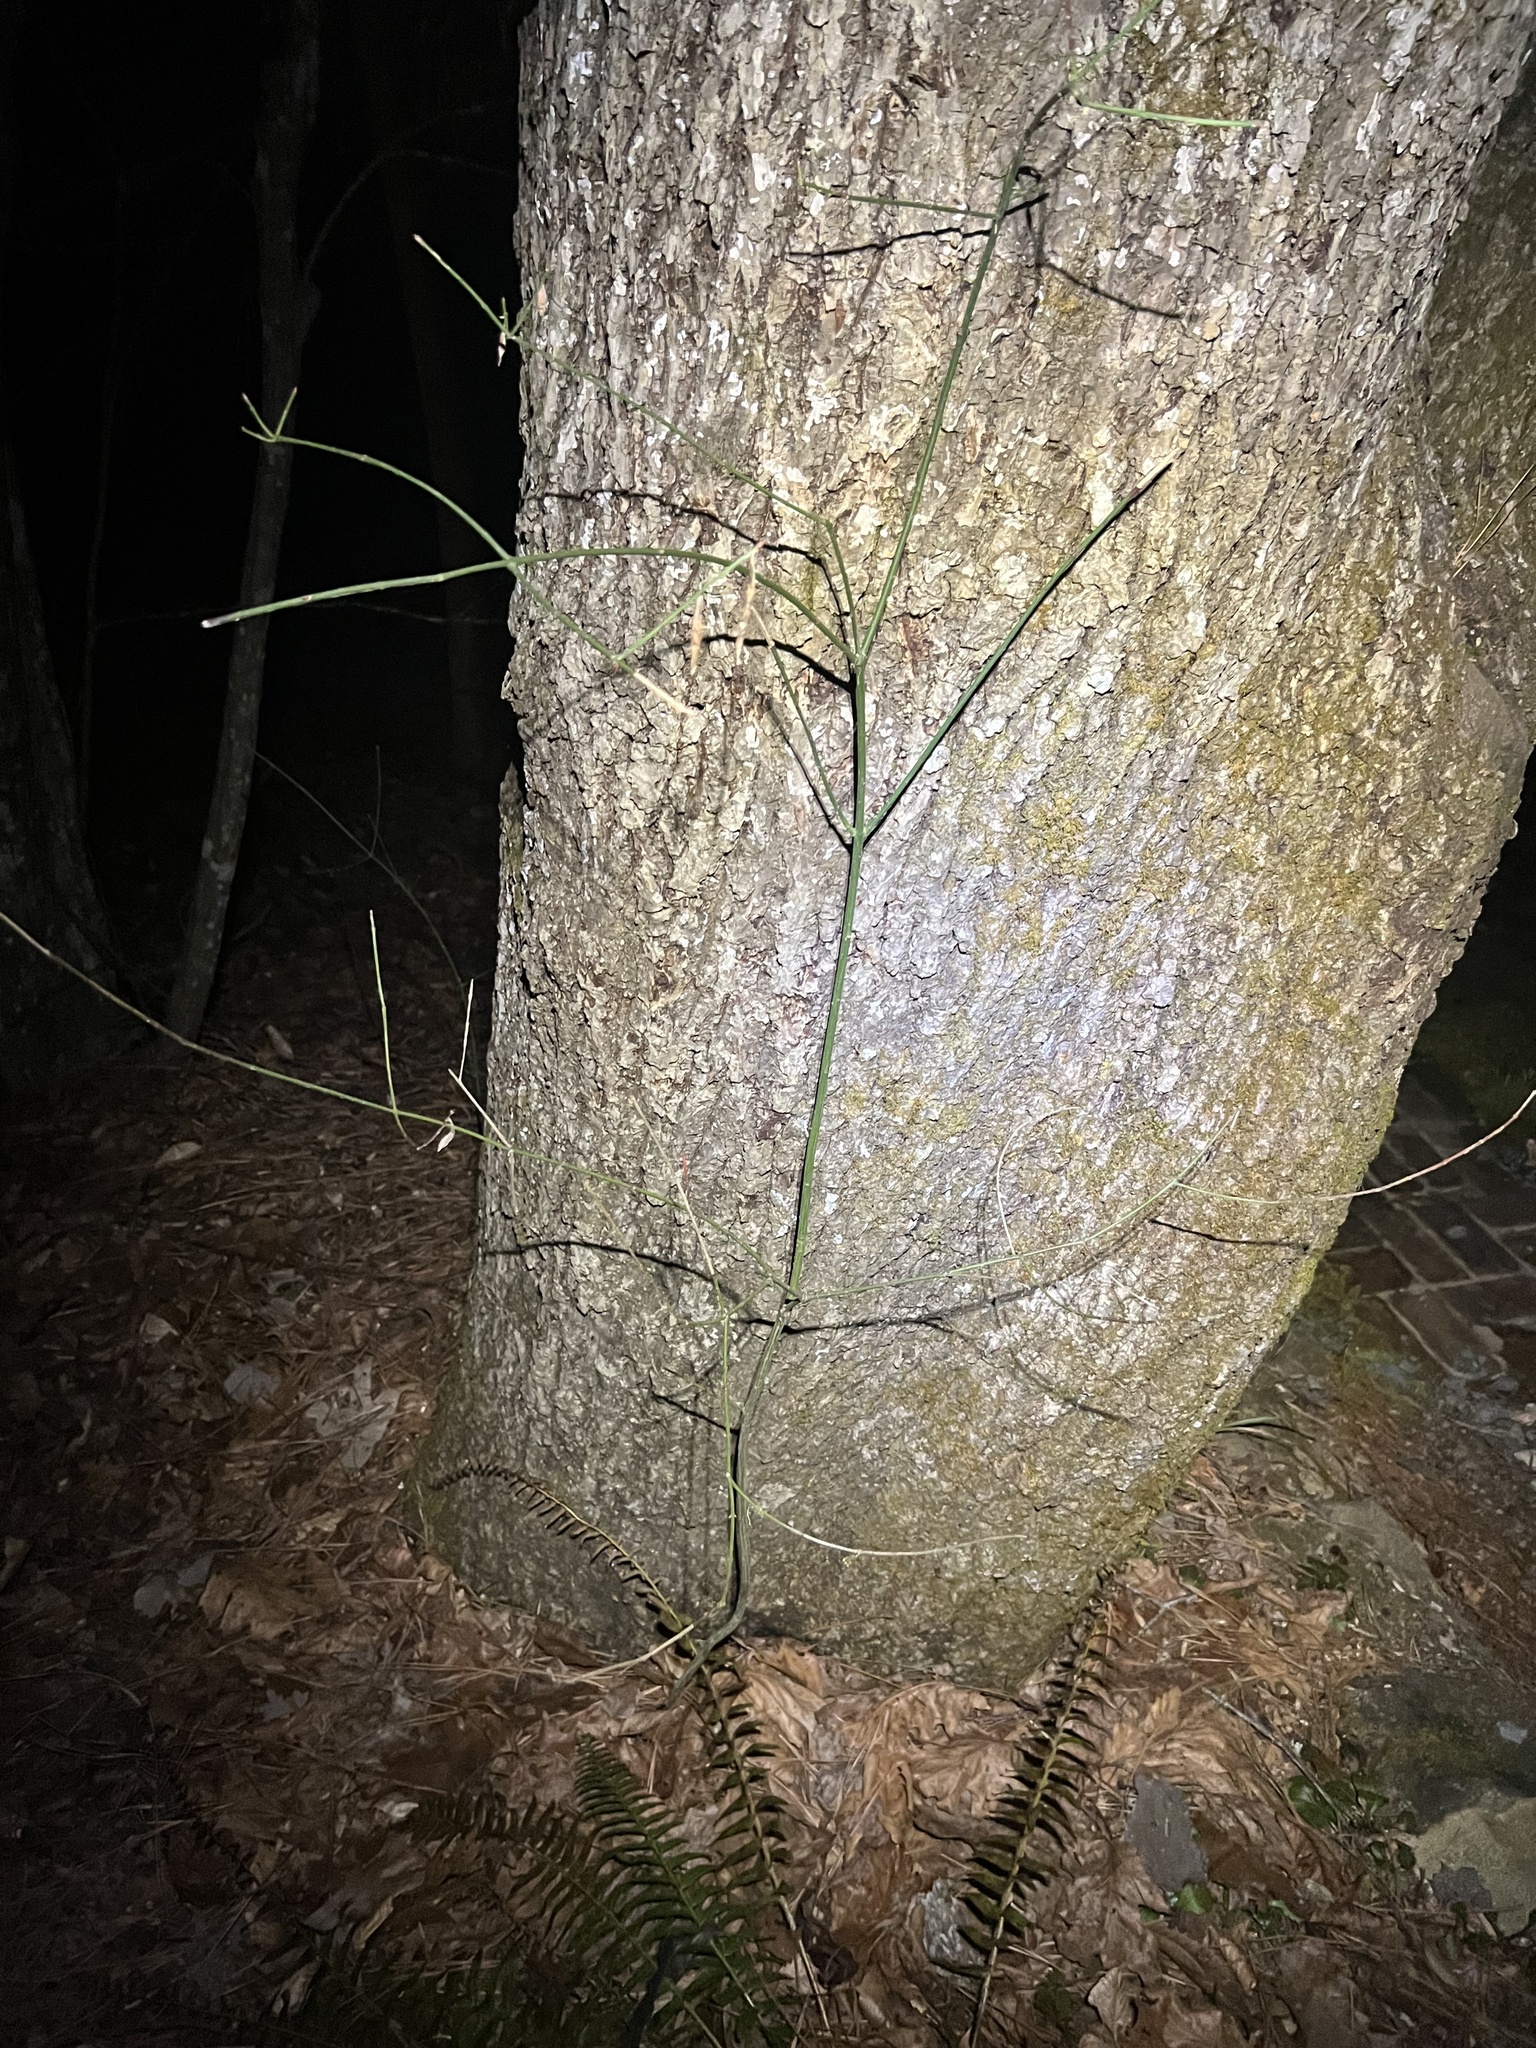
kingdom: Plantae
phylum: Tracheophyta
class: Magnoliopsida
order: Celastrales
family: Celastraceae
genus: Euonymus
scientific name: Euonymus americanus
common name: Bursting-heart
